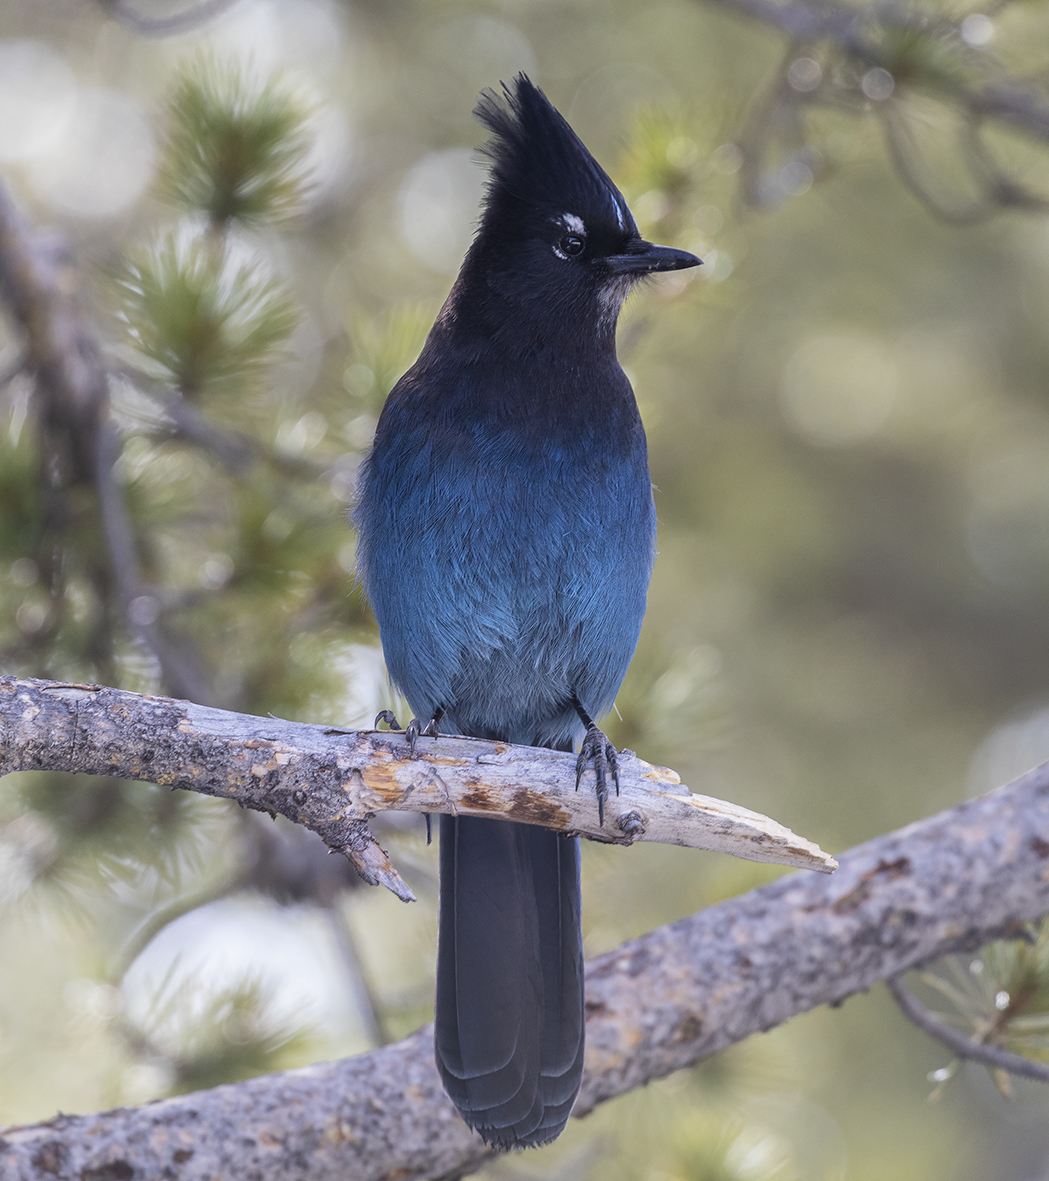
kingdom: Animalia
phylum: Chordata
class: Aves
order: Passeriformes
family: Corvidae
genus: Cyanocitta
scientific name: Cyanocitta stelleri
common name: Steller's jay
